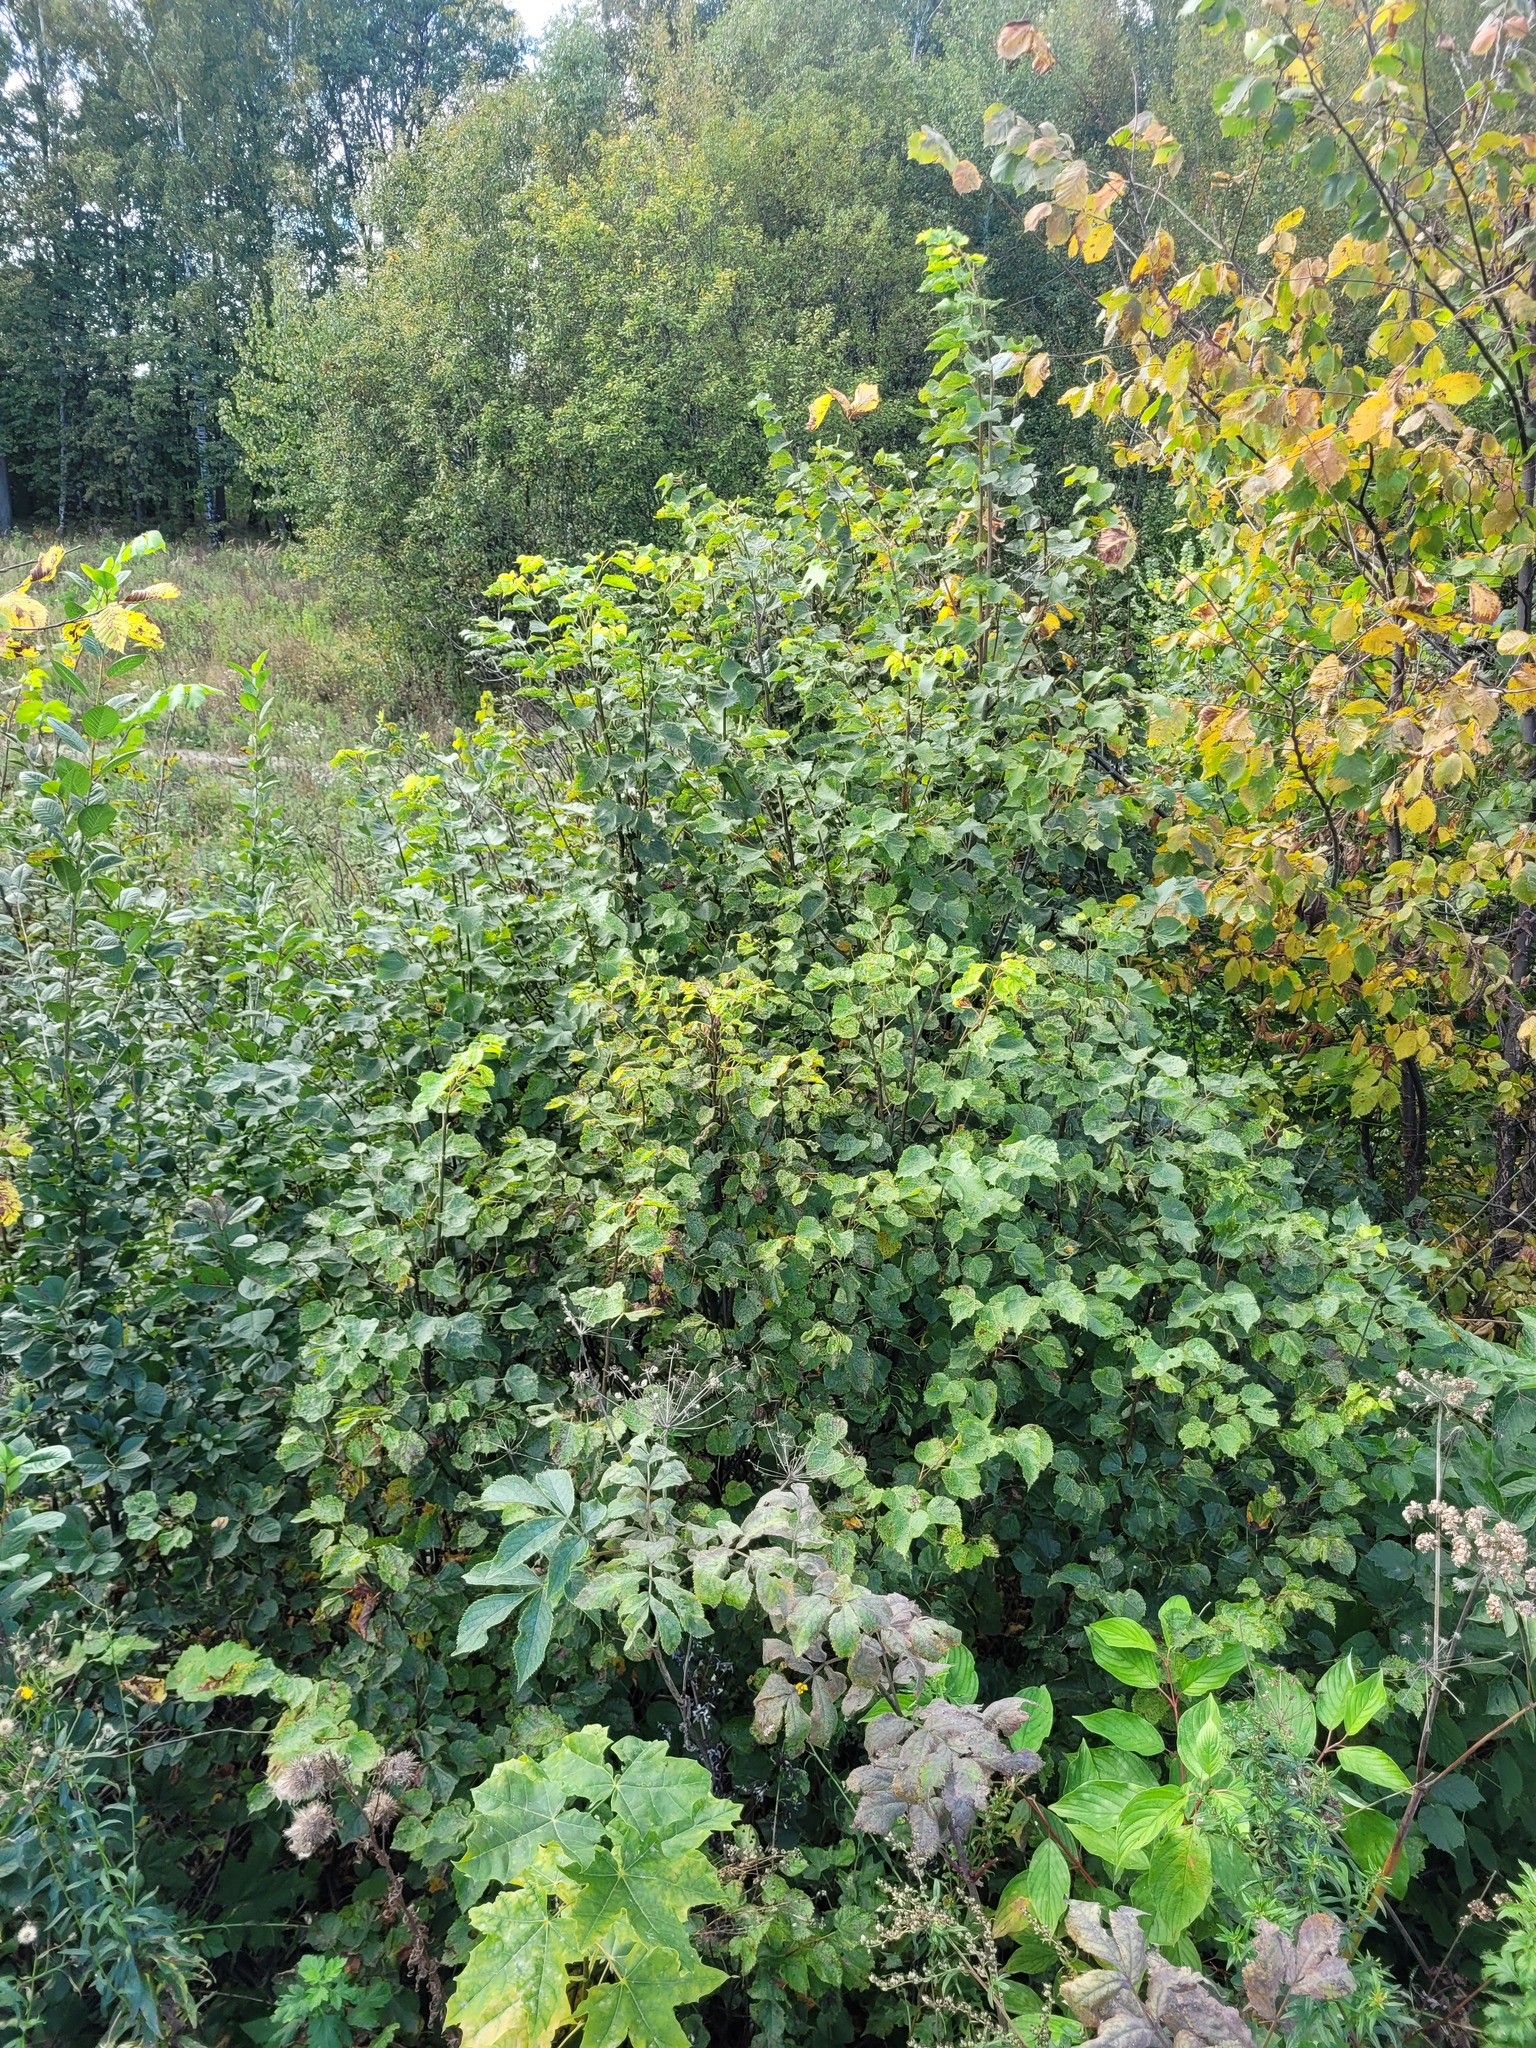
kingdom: Plantae
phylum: Tracheophyta
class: Magnoliopsida
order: Malvales
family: Malvaceae
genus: Tilia
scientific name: Tilia cordata
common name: Small-leaved lime
